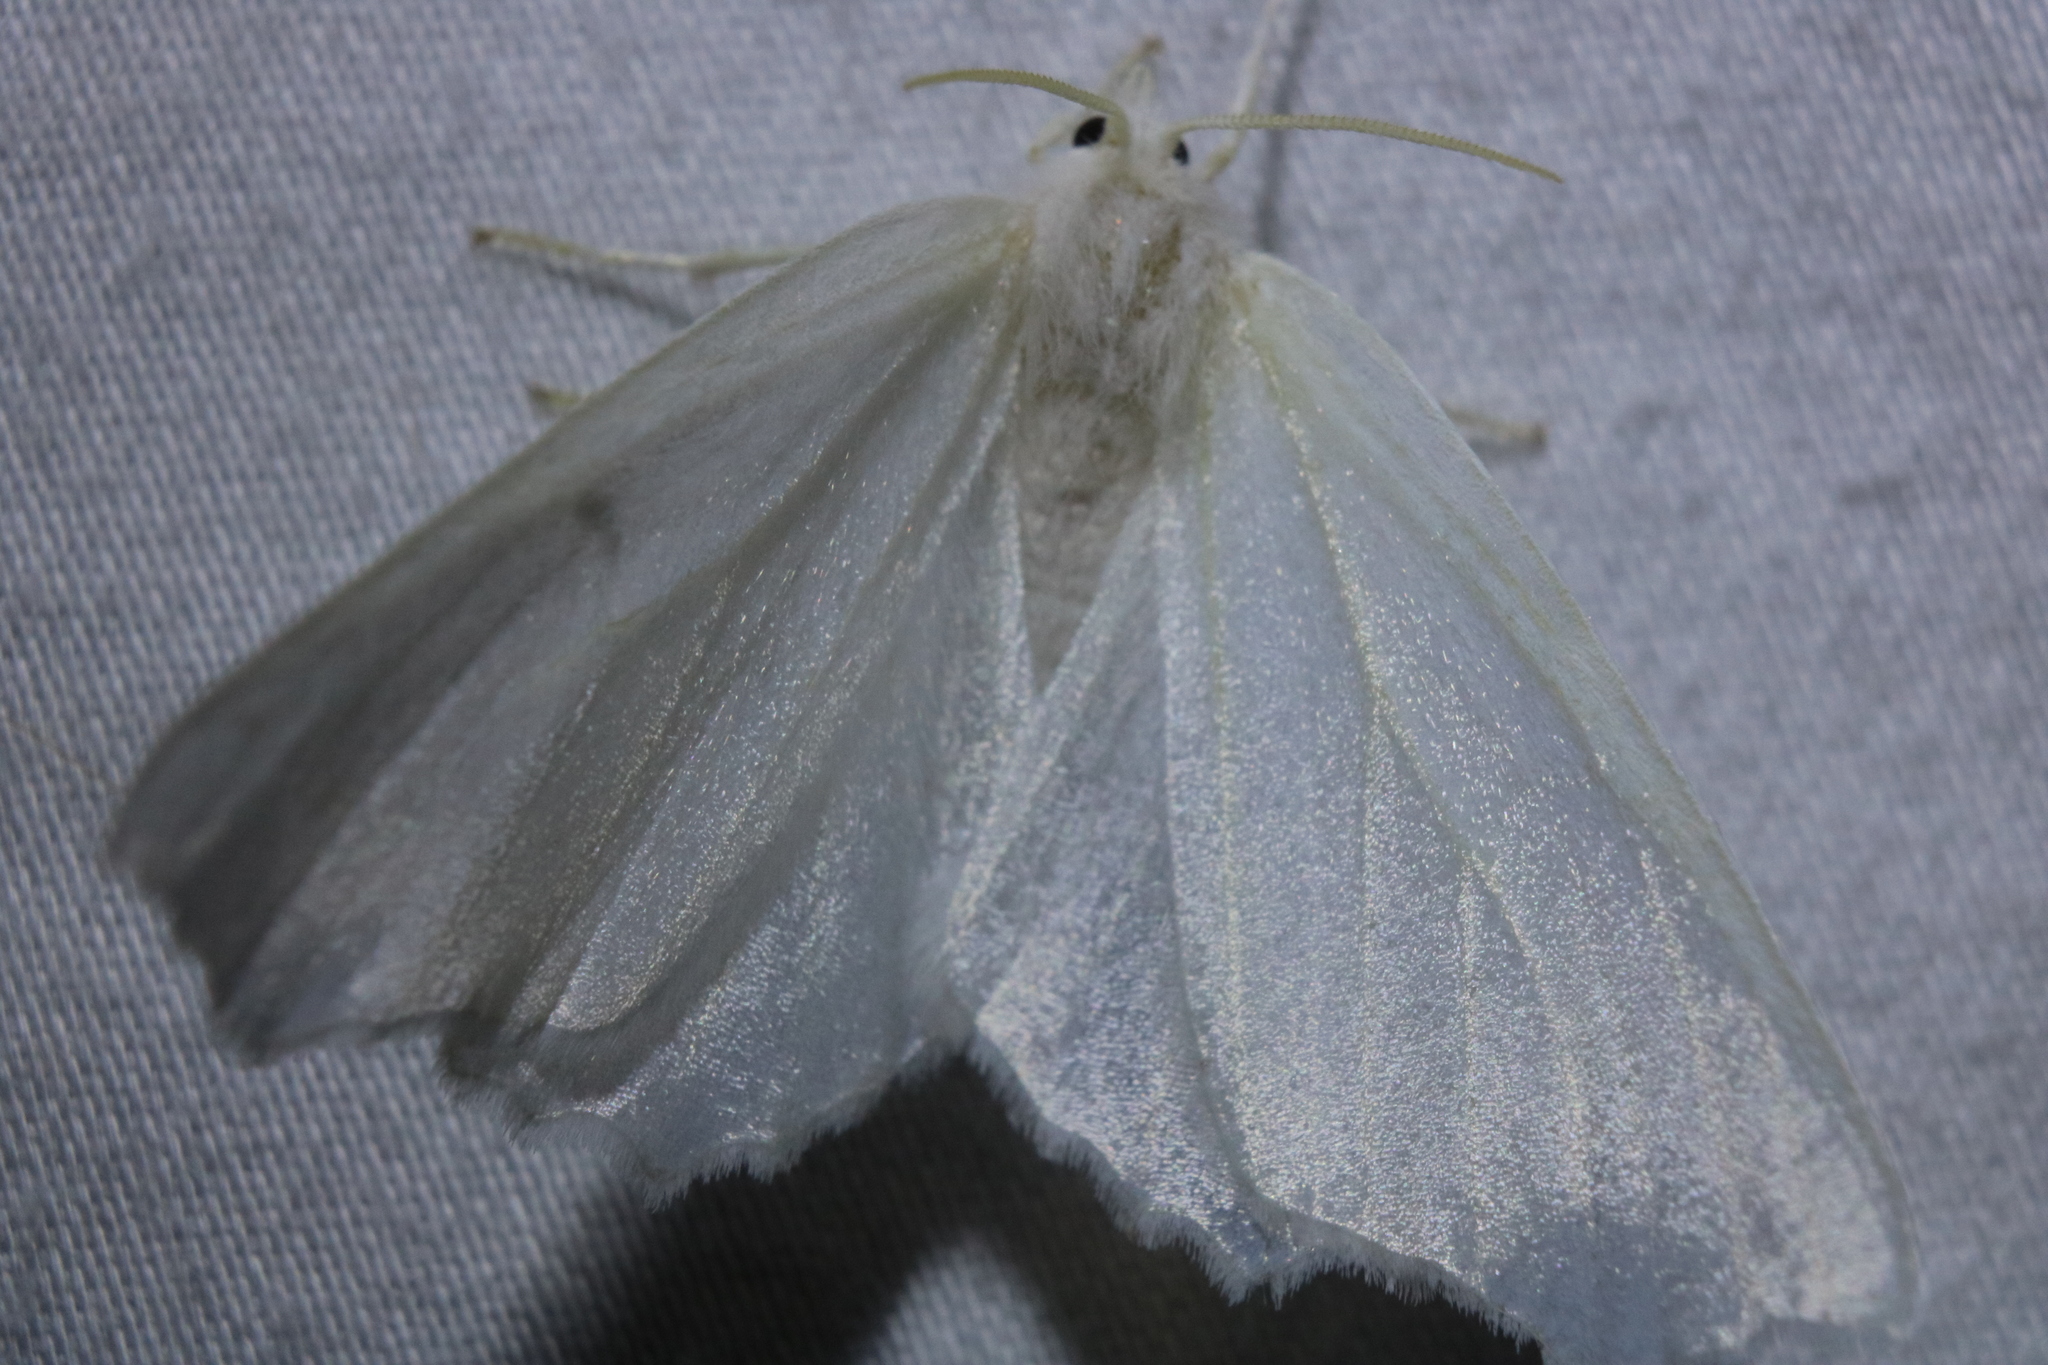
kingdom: Animalia
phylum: Arthropoda
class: Insecta
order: Lepidoptera
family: Geometridae
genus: Ennomos
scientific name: Ennomos subsignaria
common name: Elm spanworm
